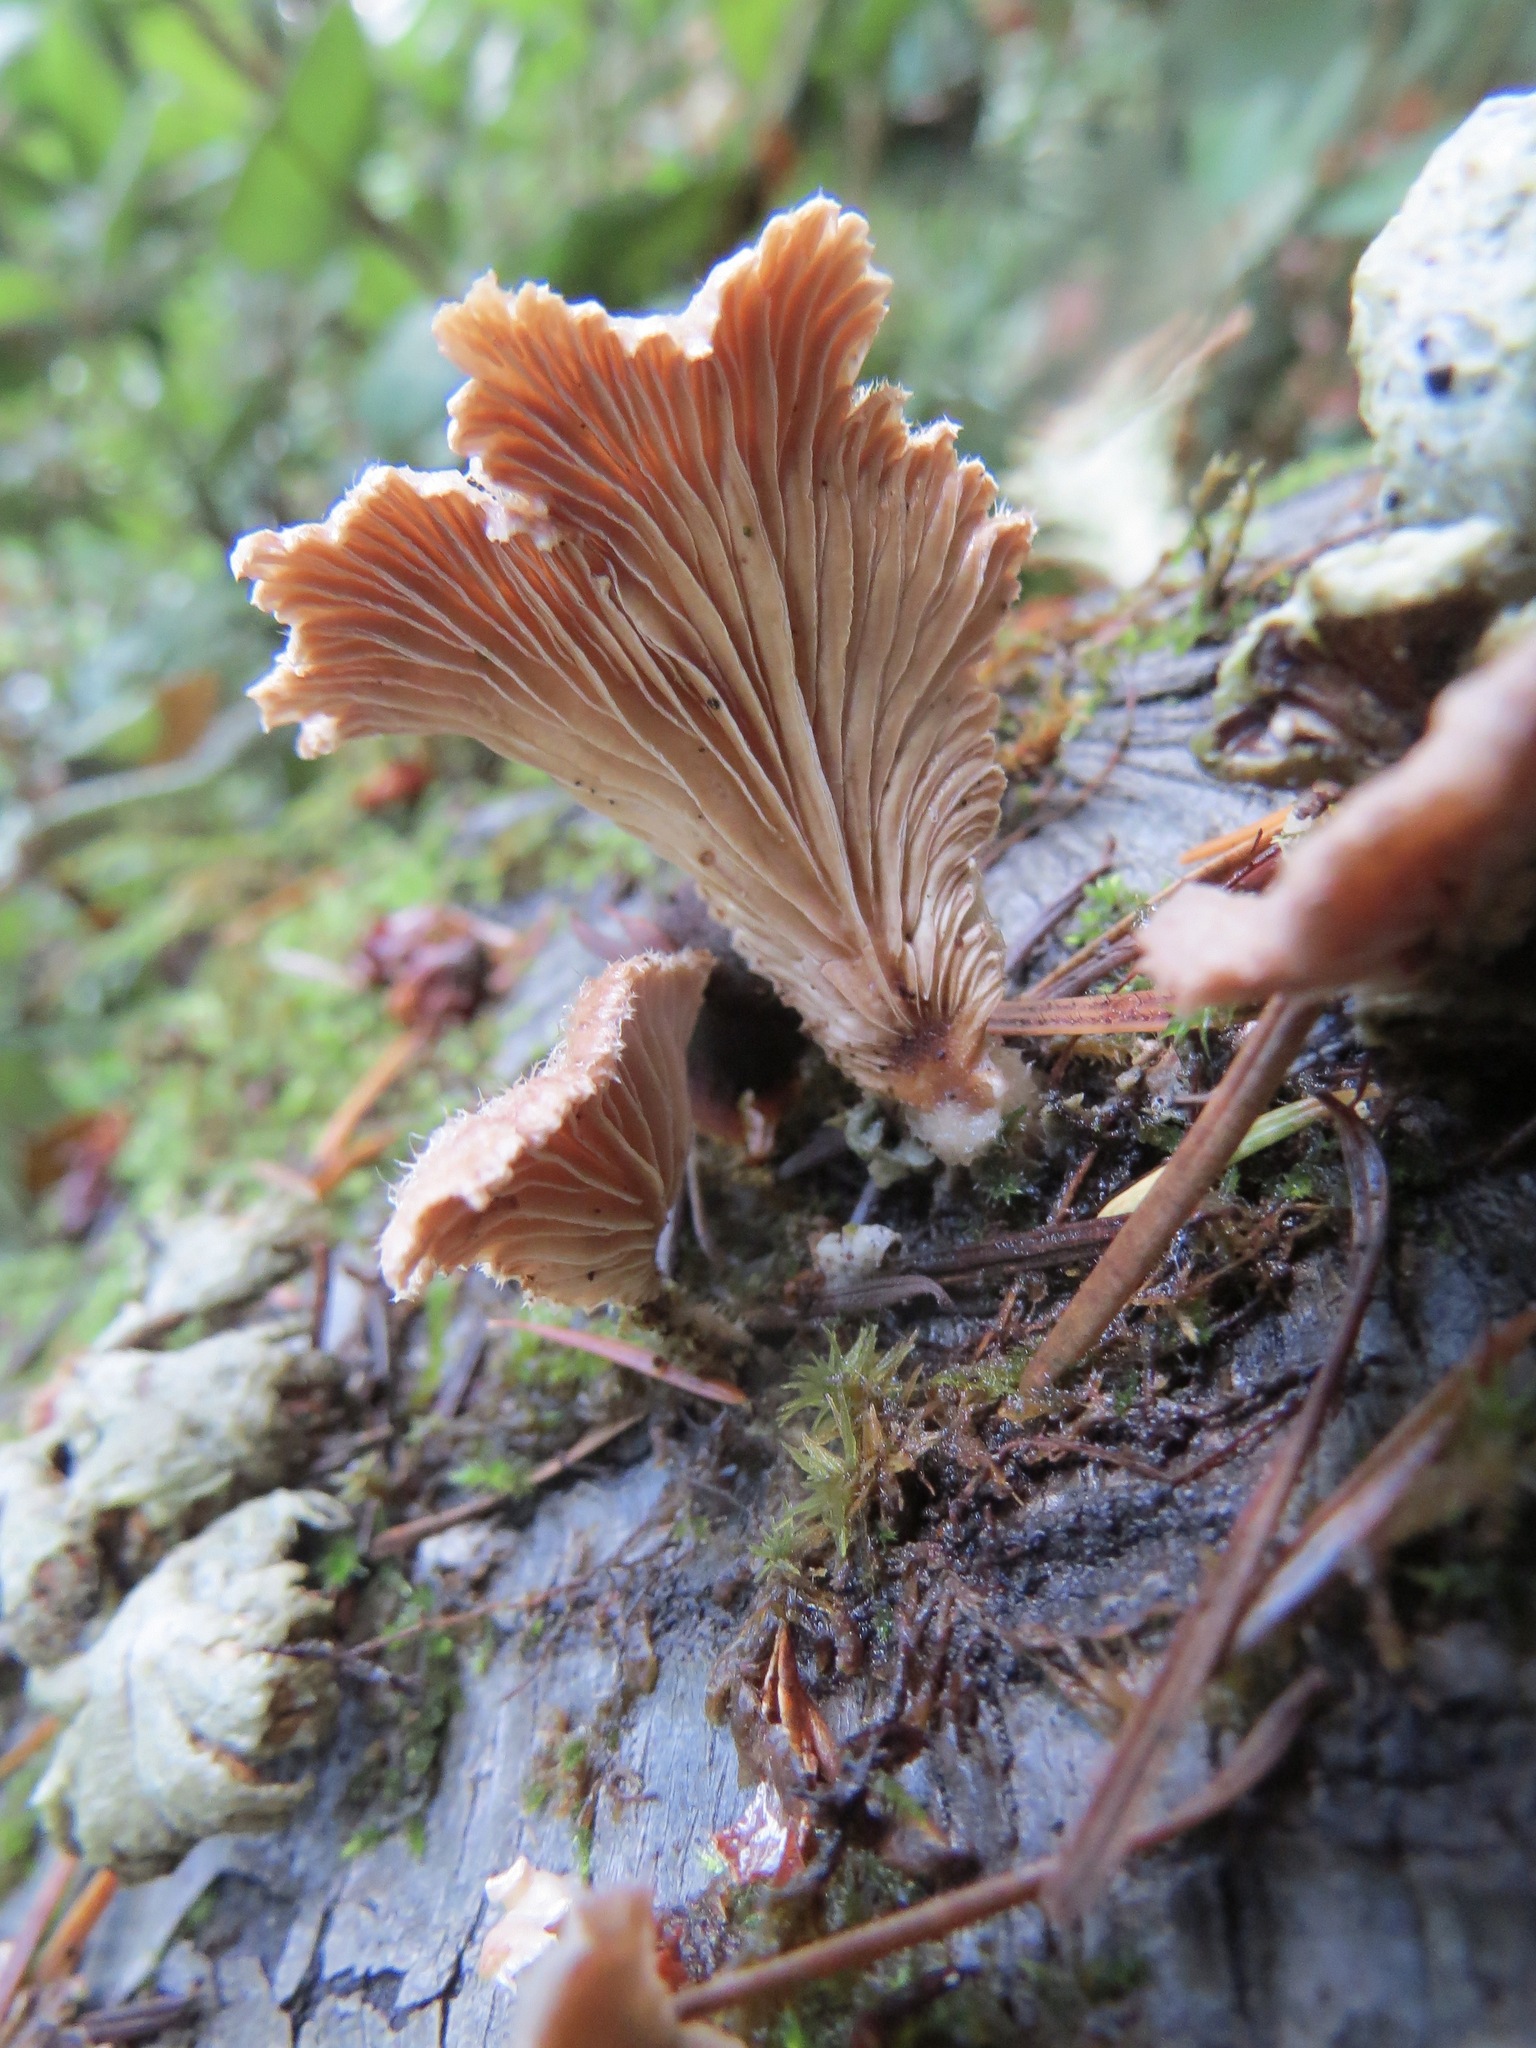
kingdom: Fungi
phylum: Basidiomycota
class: Agaricomycetes
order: Agaricales
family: Schizophyllaceae
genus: Schizophyllum
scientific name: Schizophyllum commune
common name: Common porecrust
